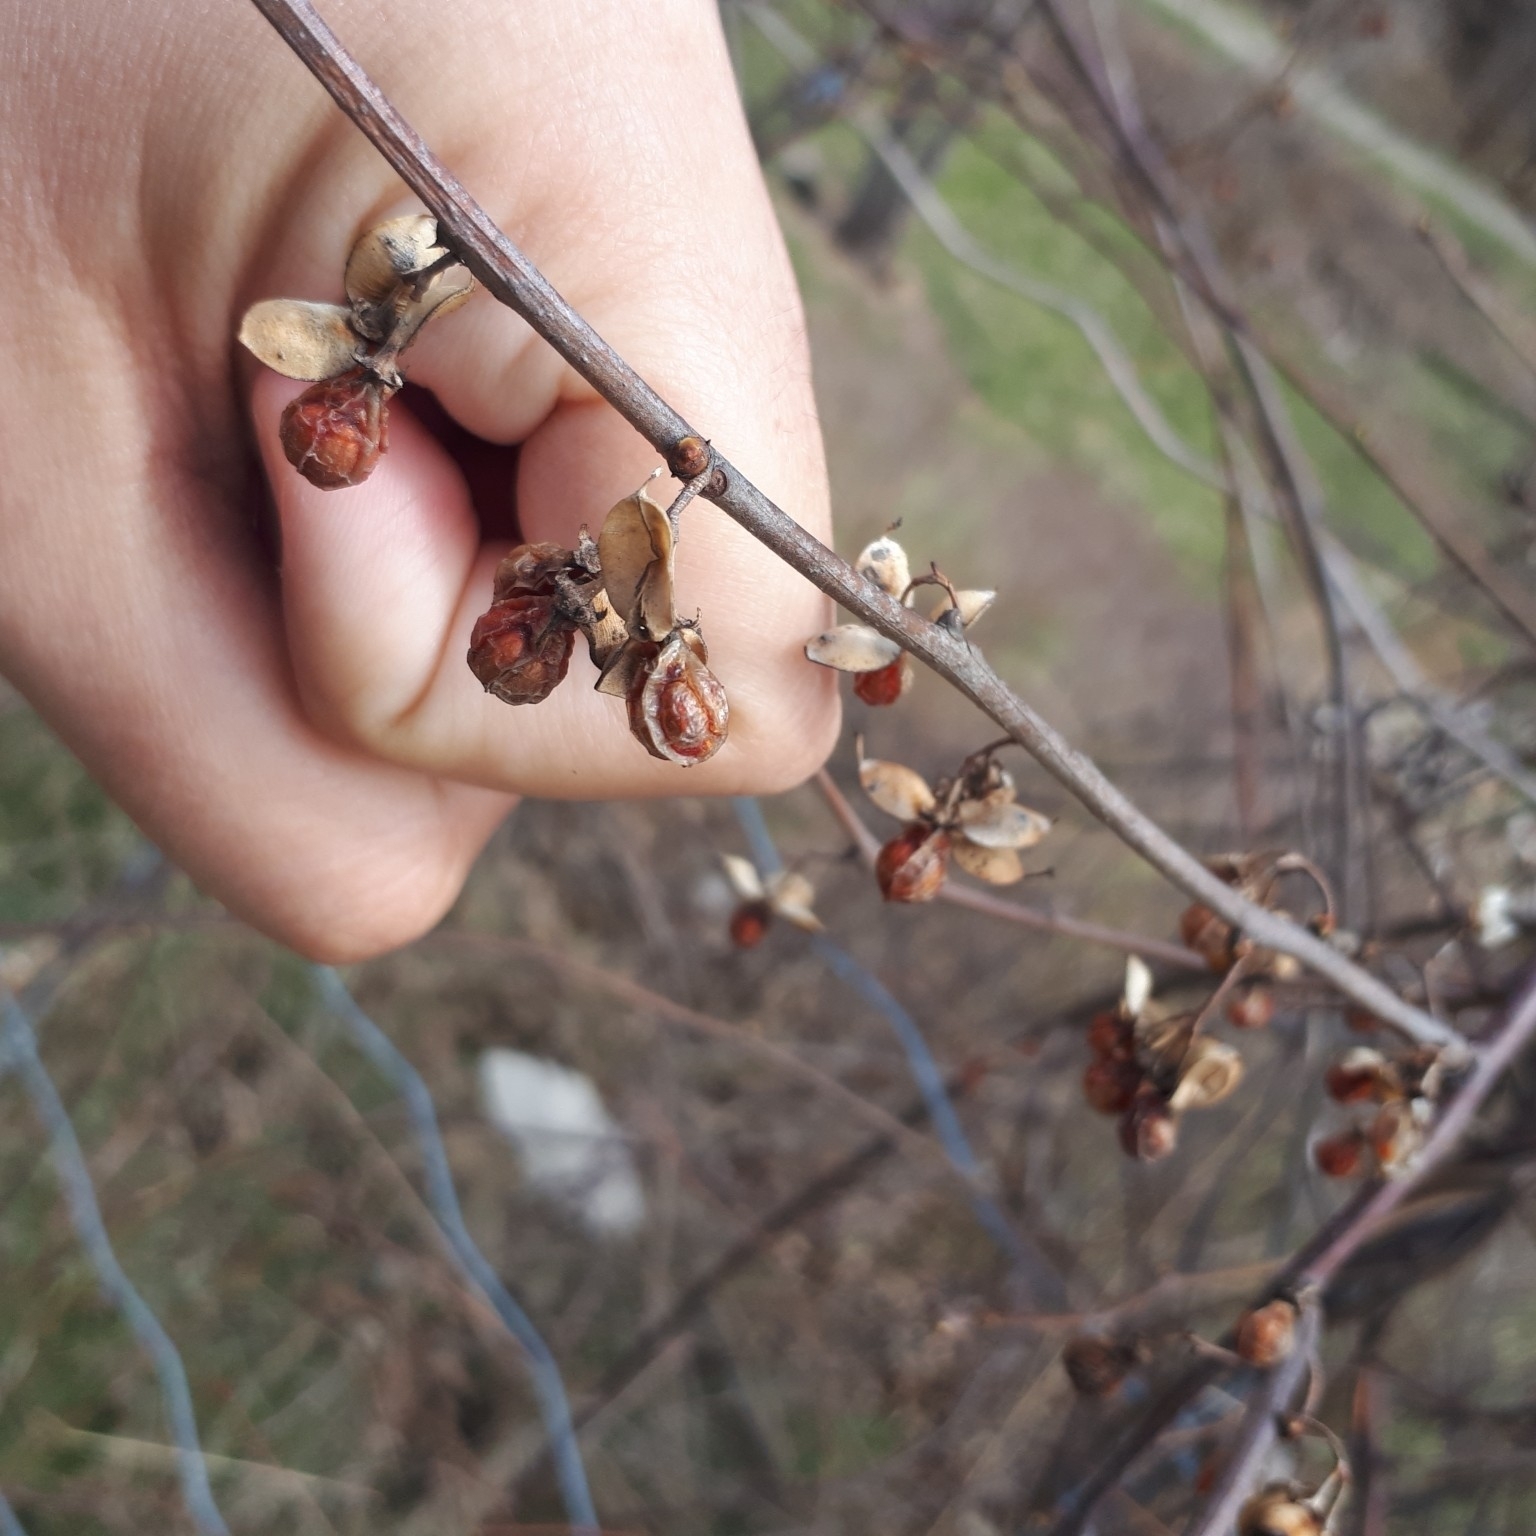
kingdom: Plantae
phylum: Tracheophyta
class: Magnoliopsida
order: Celastrales
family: Celastraceae
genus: Celastrus
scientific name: Celastrus orbiculatus
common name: Oriental bittersweet
